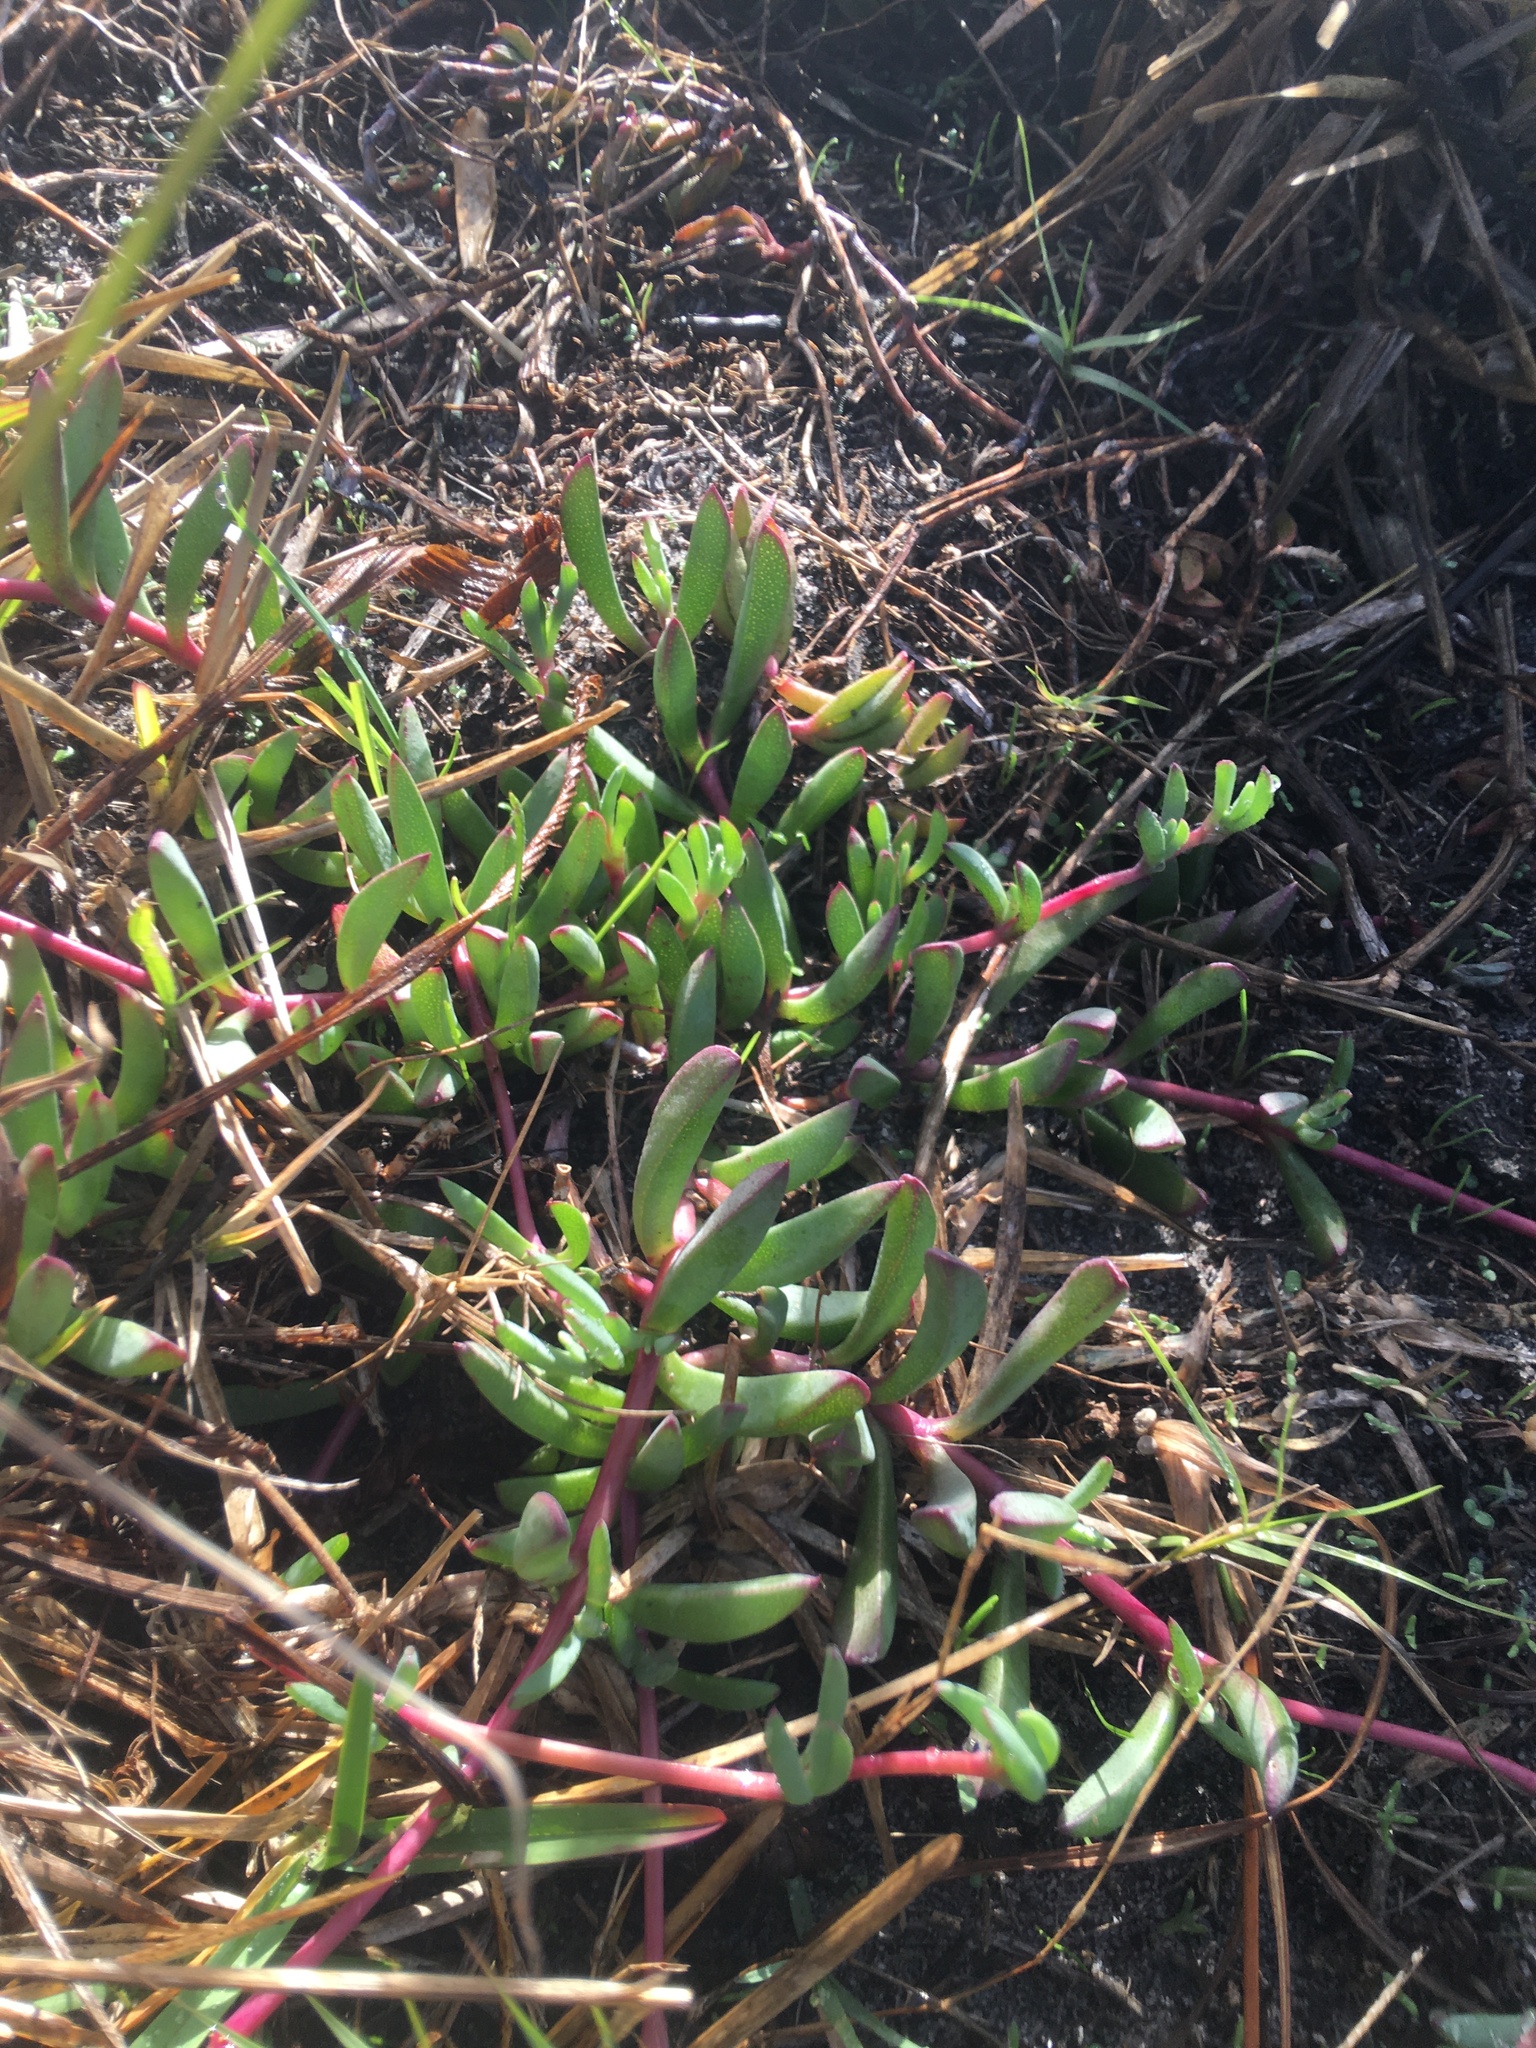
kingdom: Plantae
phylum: Tracheophyta
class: Magnoliopsida
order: Caryophyllales
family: Aizoaceae
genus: Lampranthus
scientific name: Lampranthus reptans
